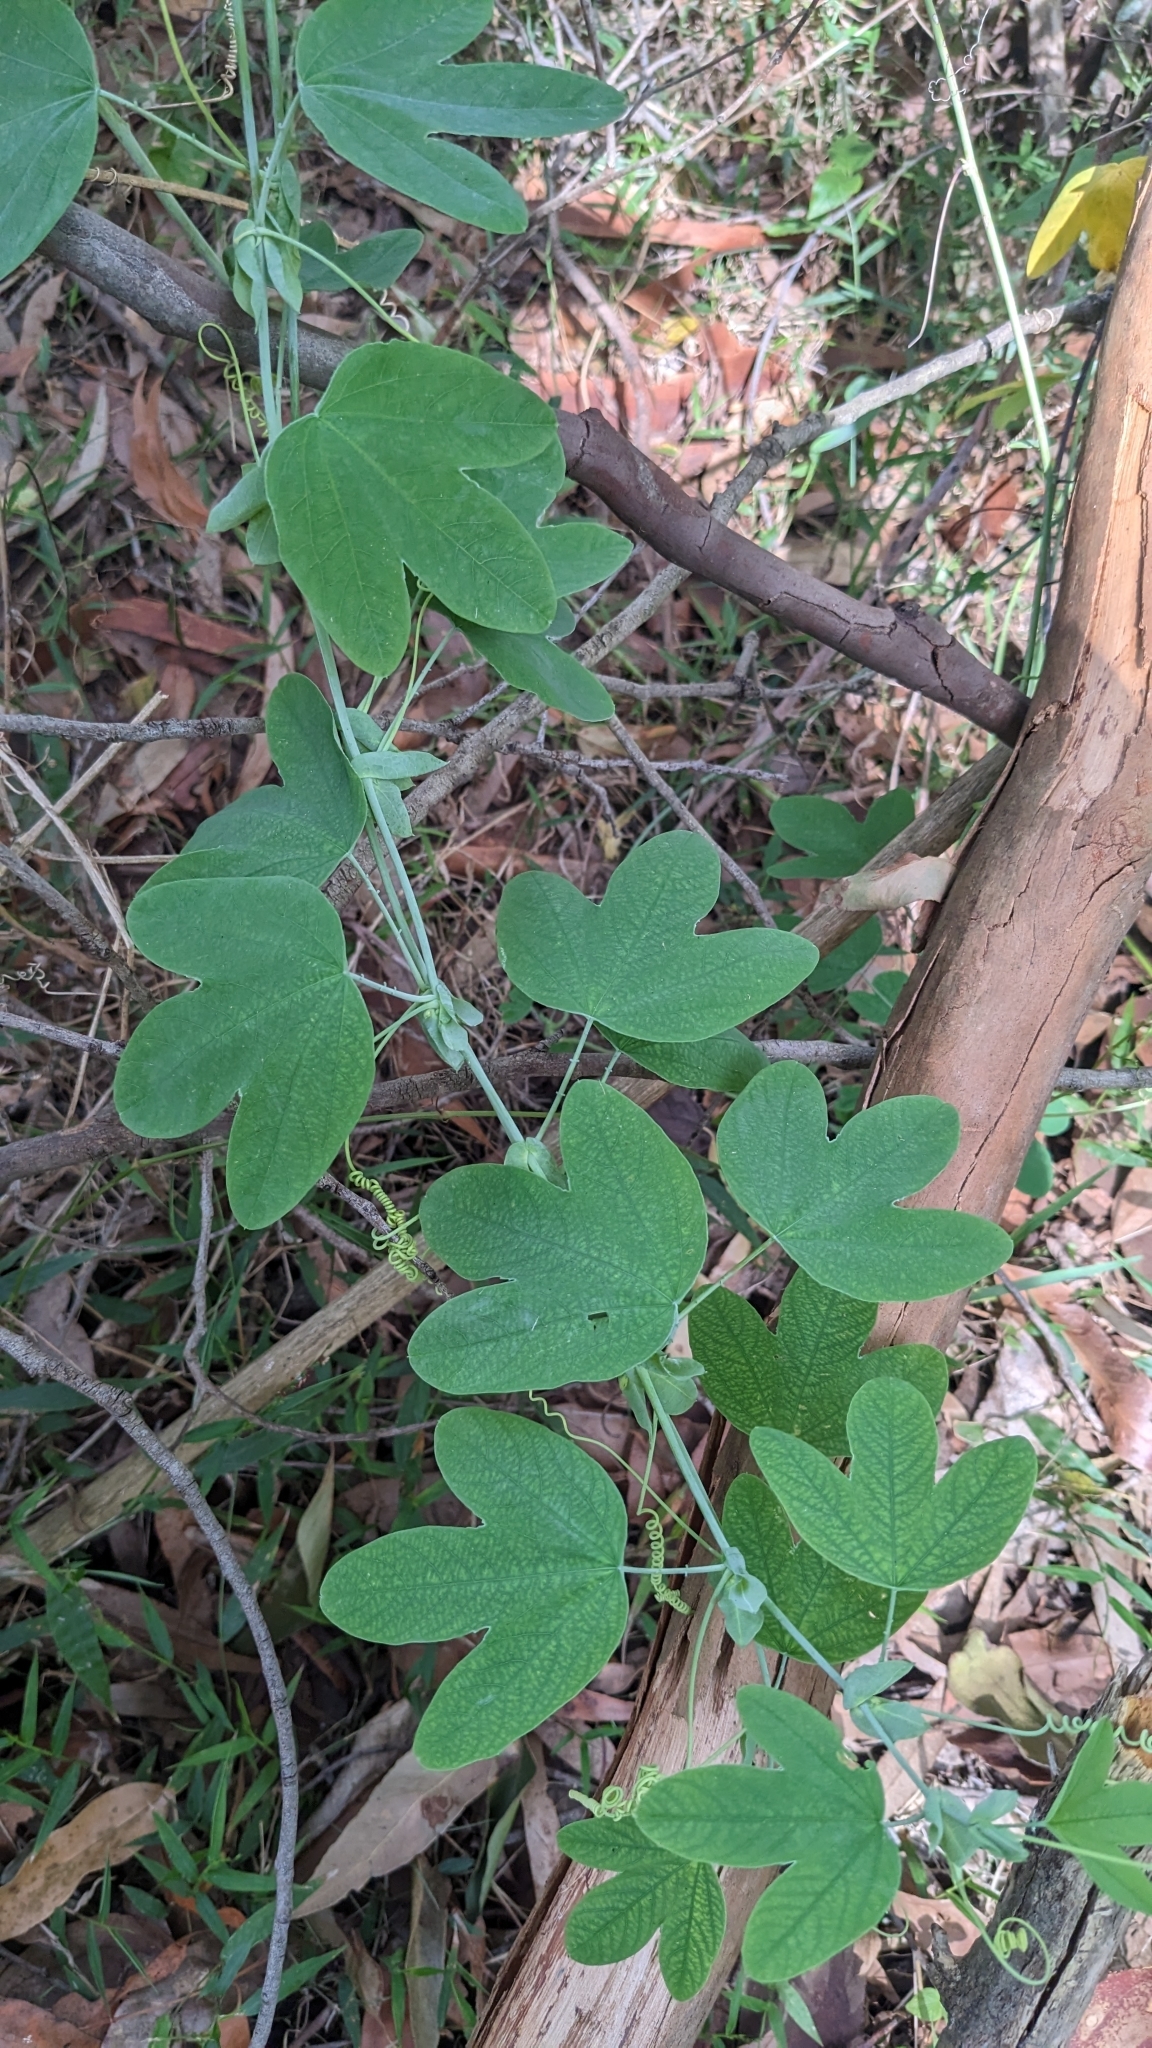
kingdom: Plantae
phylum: Tracheophyta
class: Magnoliopsida
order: Malpighiales
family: Passifloraceae
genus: Passiflora
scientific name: Passiflora subpeltata
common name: White passionflower
